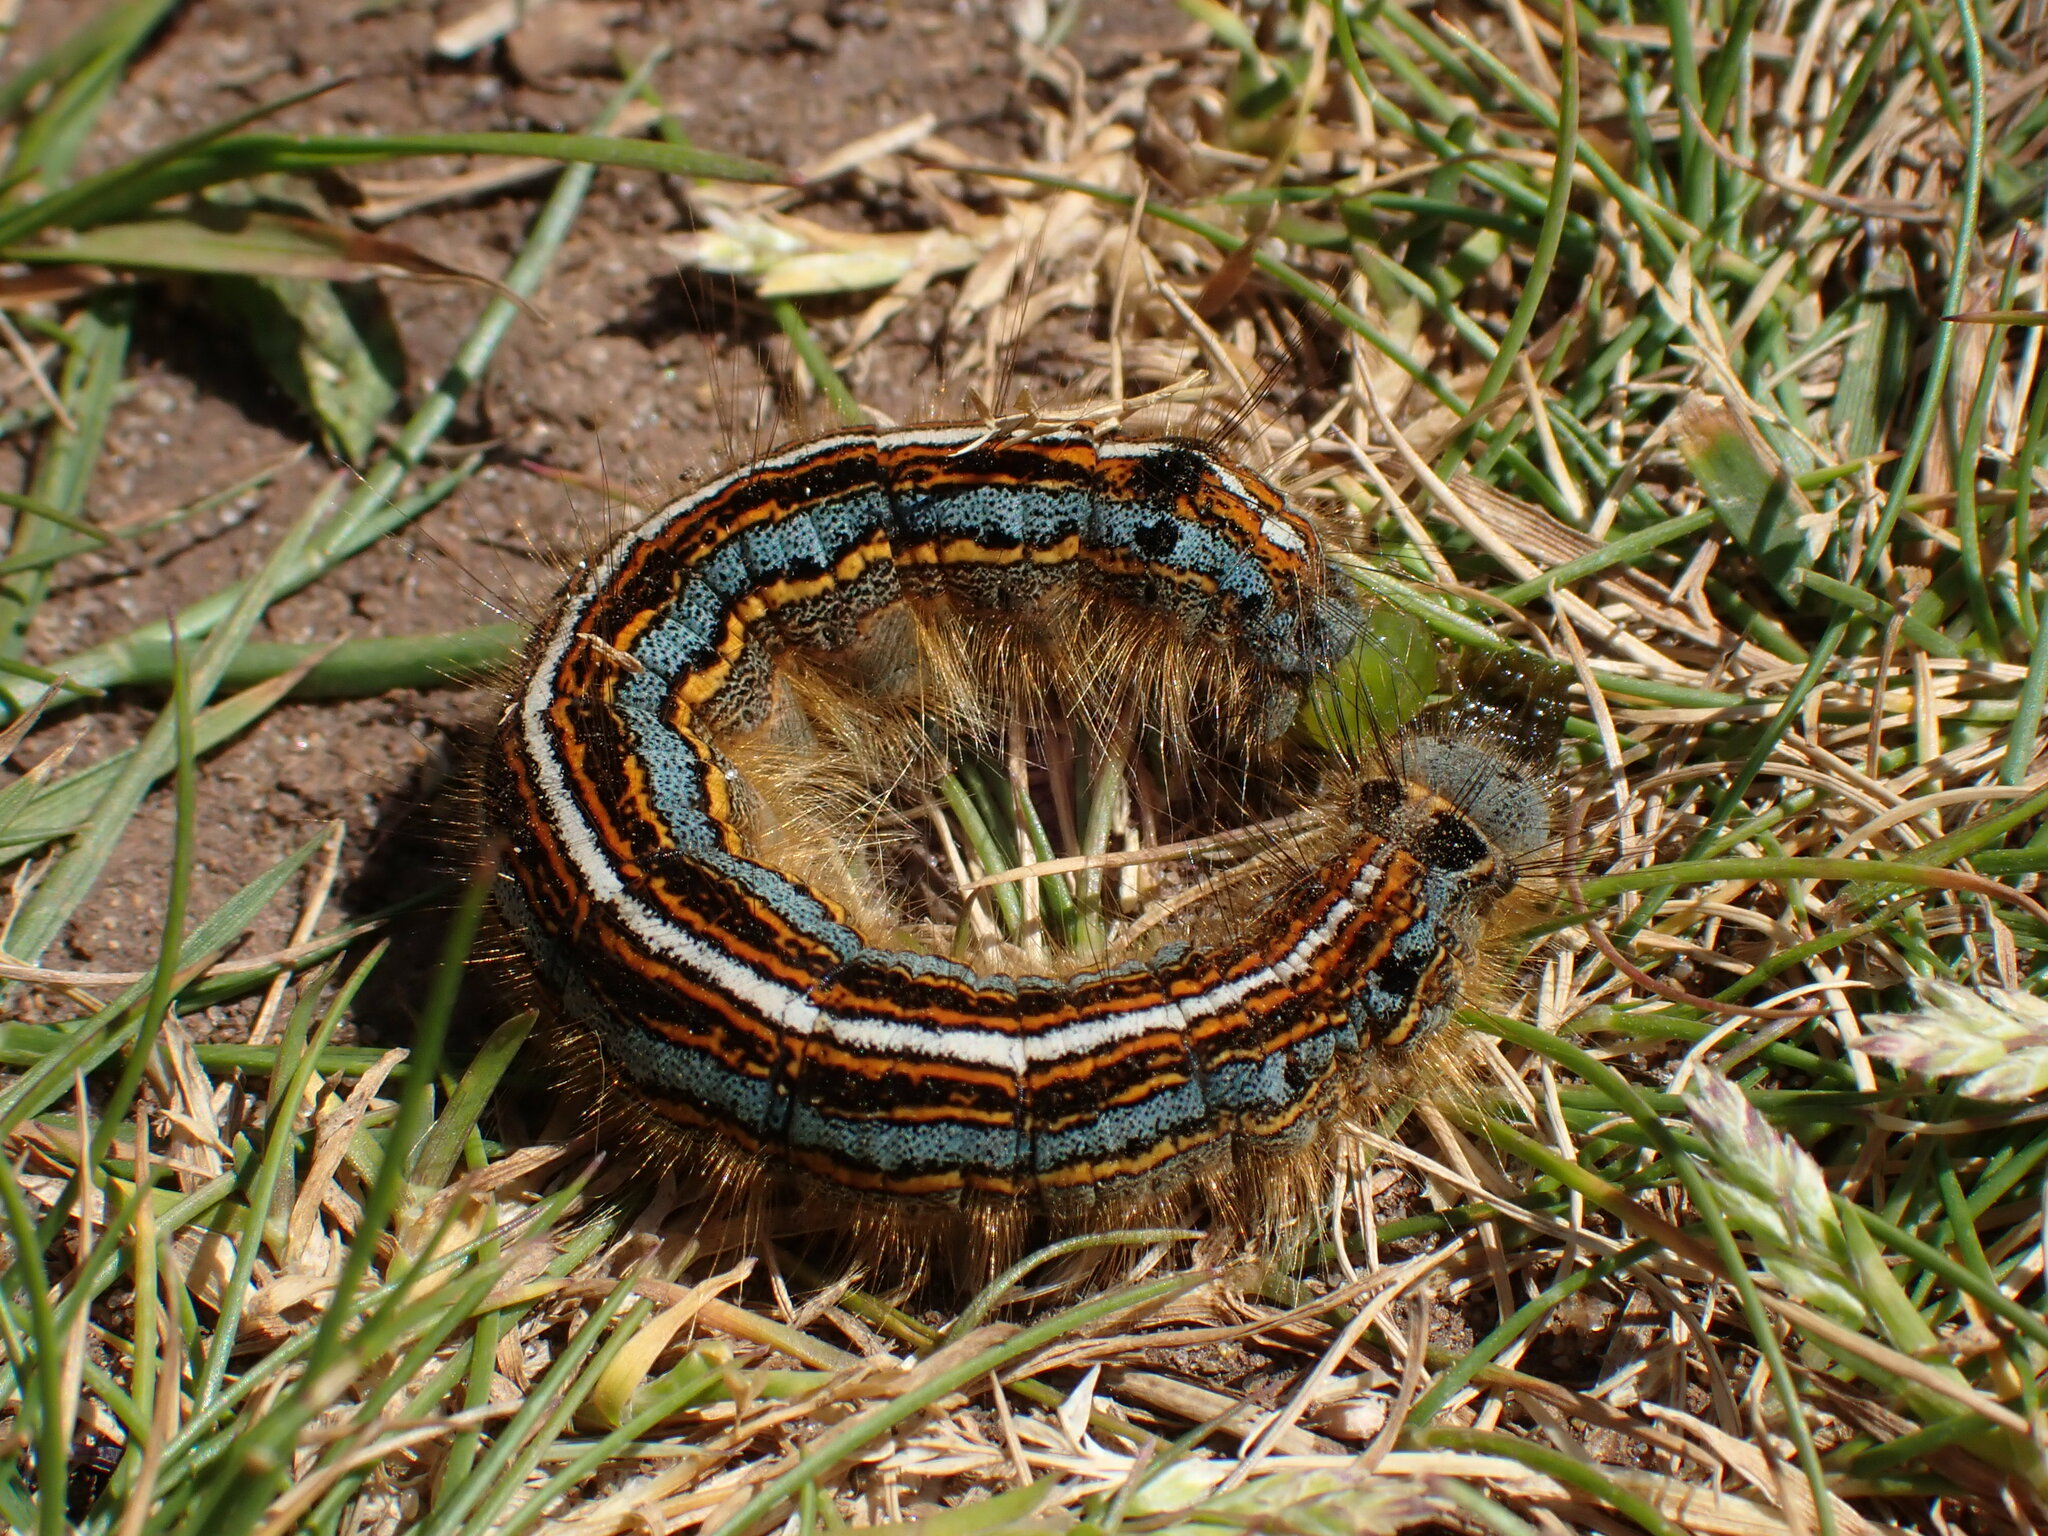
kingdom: Animalia
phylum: Arthropoda
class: Insecta
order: Lepidoptera
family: Lasiocampidae
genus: Malacosoma
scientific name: Malacosoma neustria
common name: The lackey
